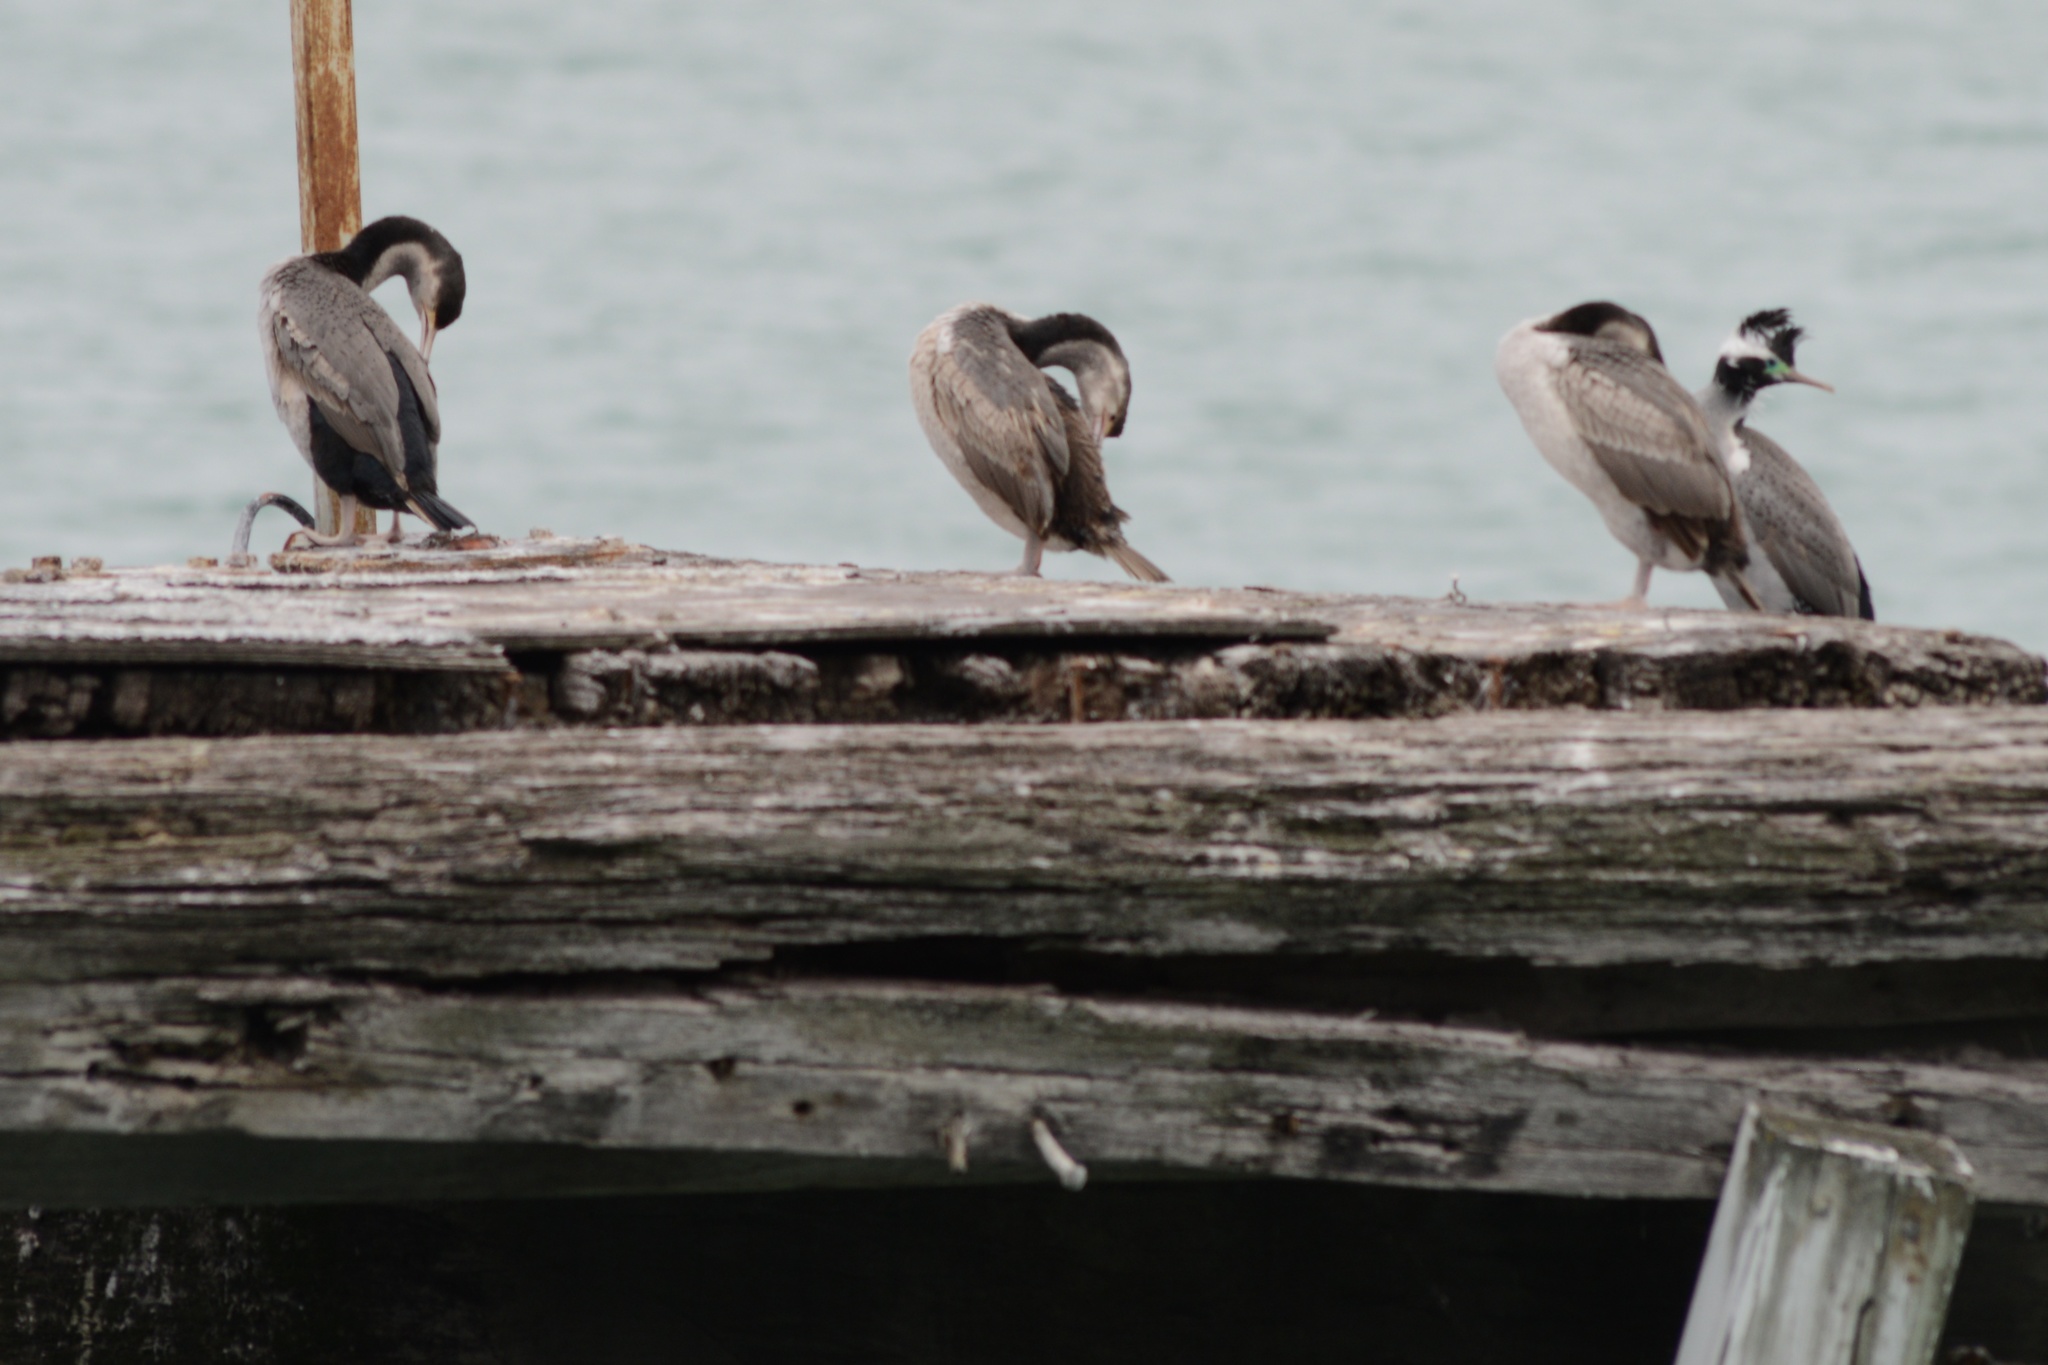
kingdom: Animalia
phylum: Chordata
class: Aves
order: Suliformes
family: Phalacrocoracidae
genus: Phalacrocorax
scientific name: Phalacrocorax punctatus
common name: Spotted shag
